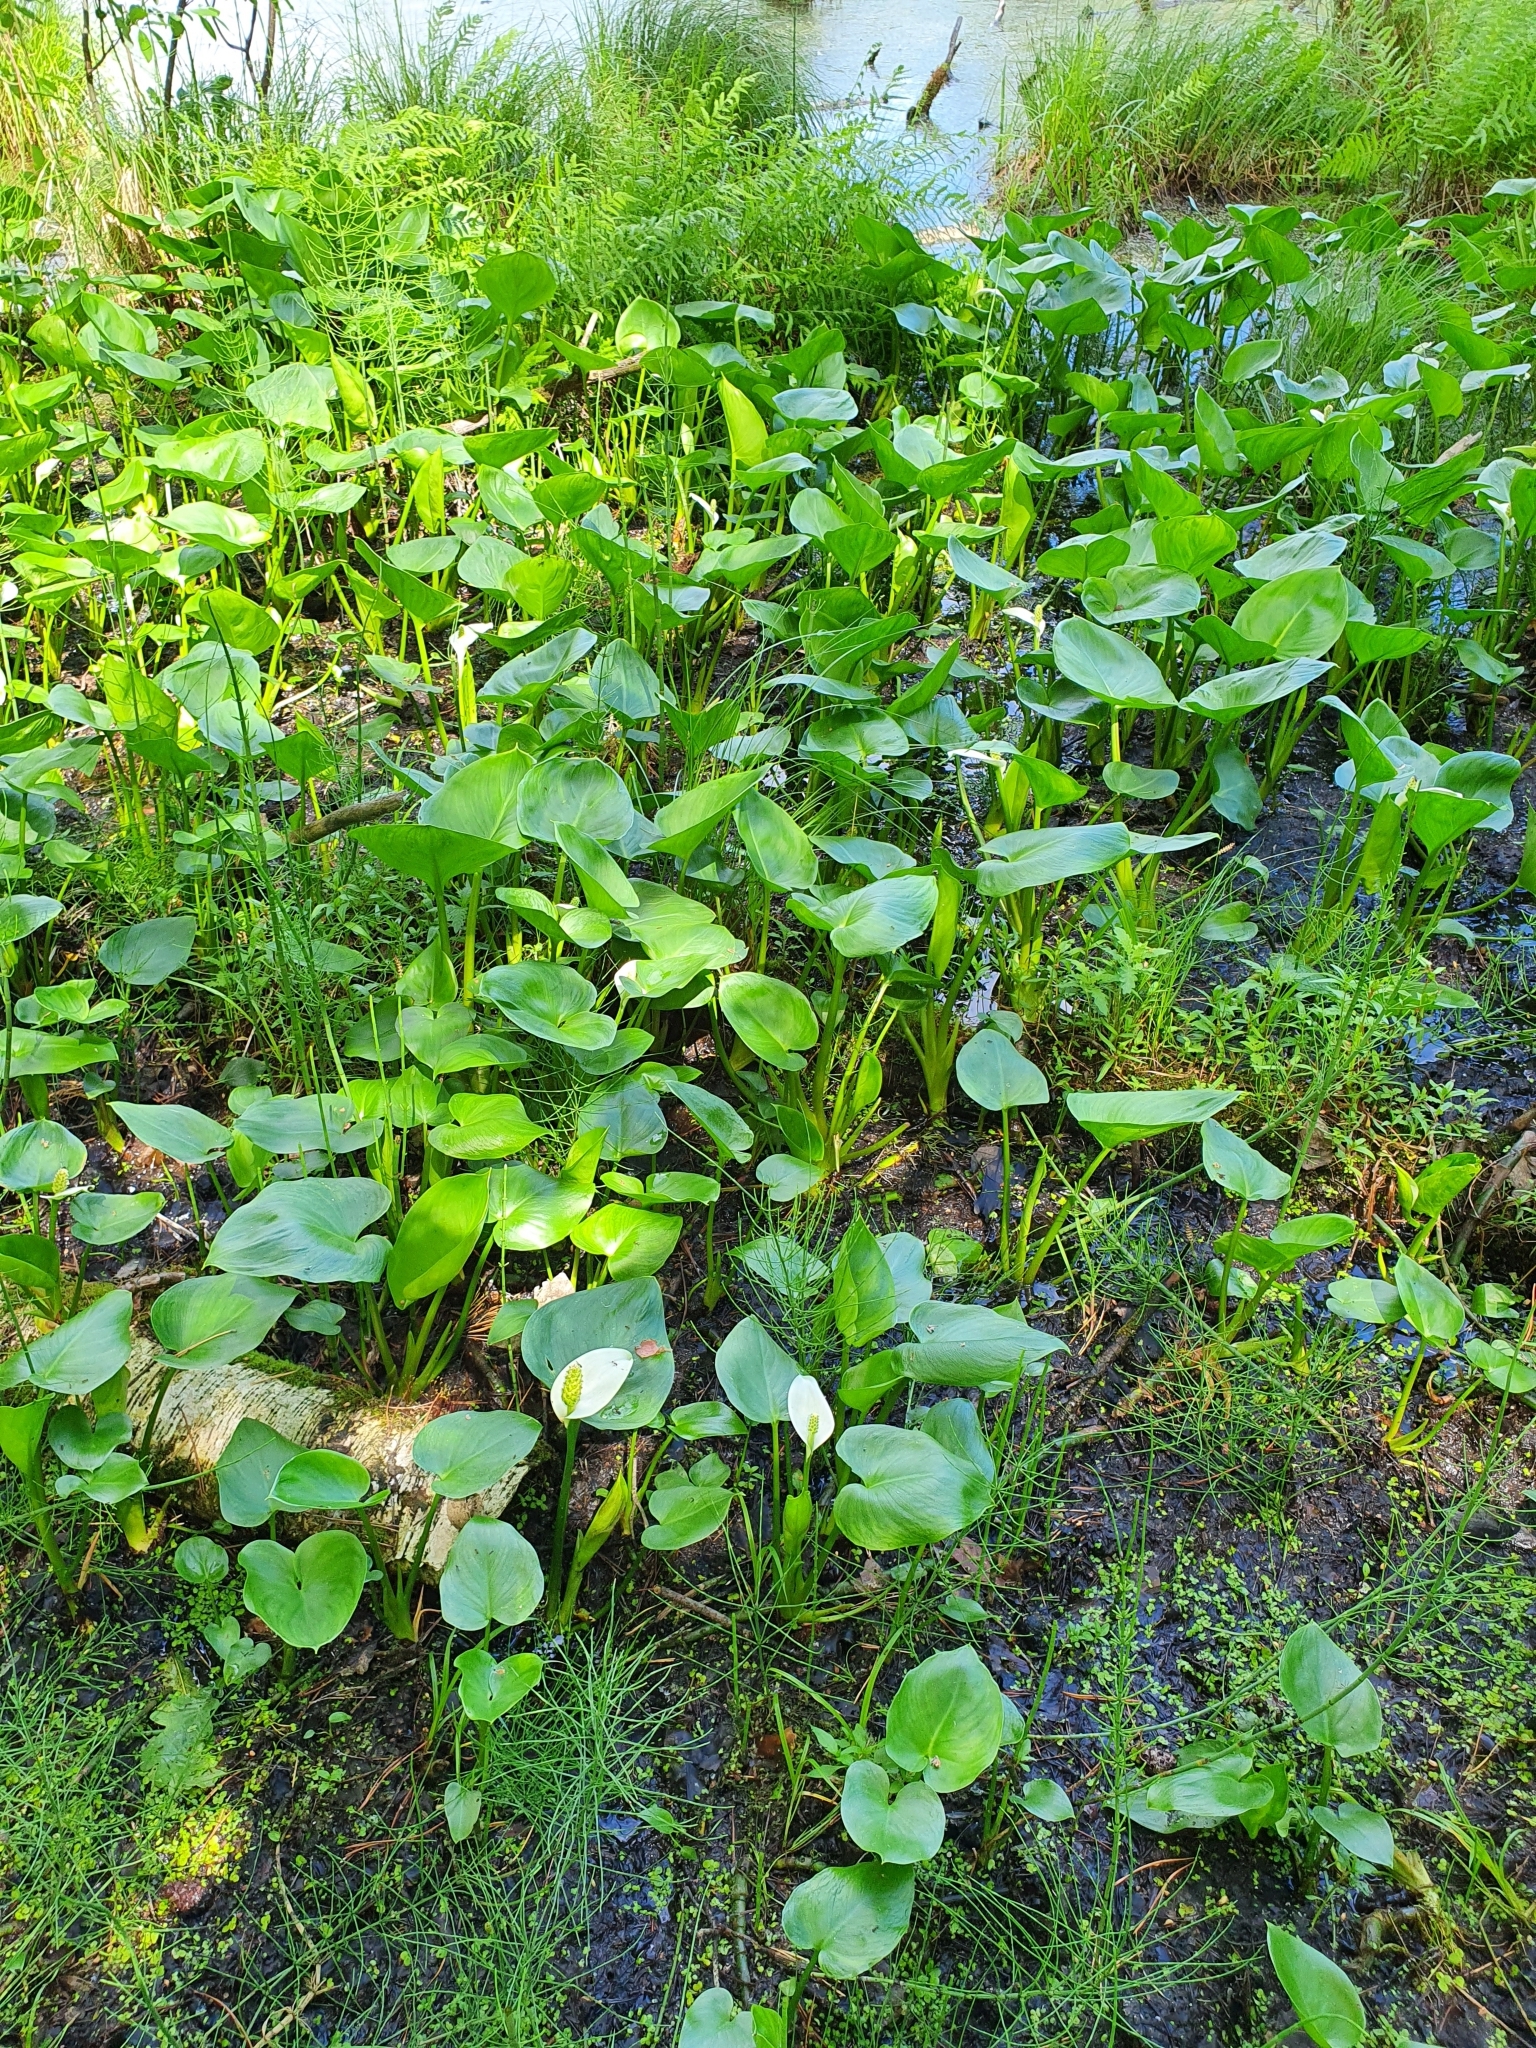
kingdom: Plantae
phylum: Tracheophyta
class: Liliopsida
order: Alismatales
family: Araceae
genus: Calla
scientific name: Calla palustris
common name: Bog arum
